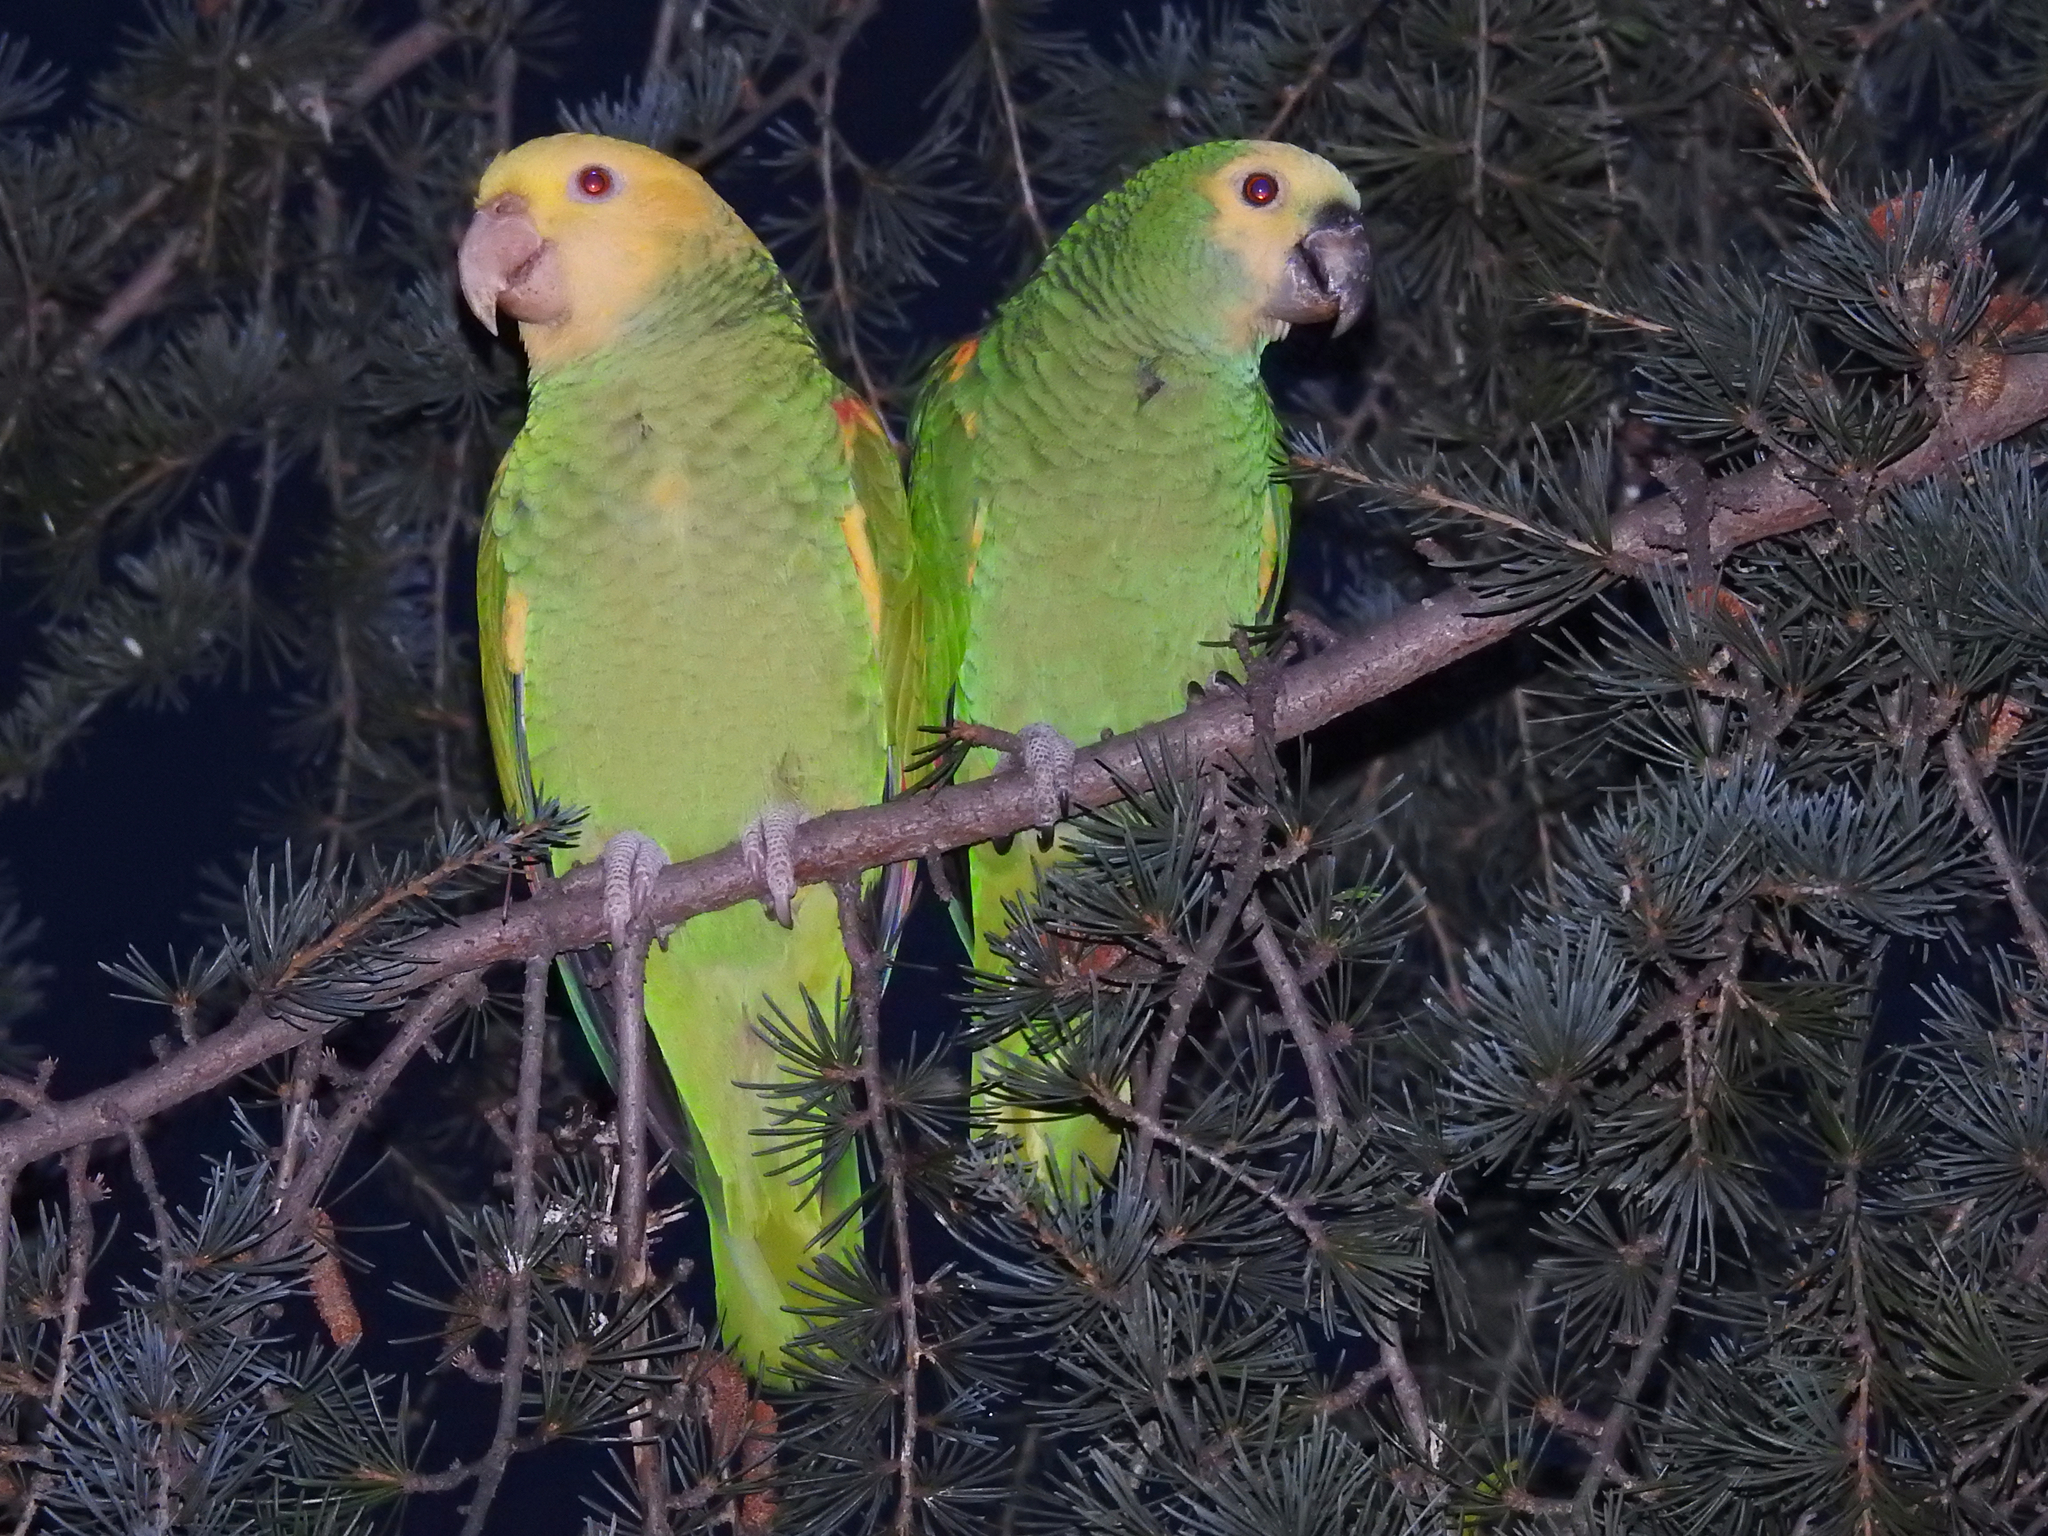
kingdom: Animalia
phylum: Chordata
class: Aves
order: Psittaciformes
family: Psittacidae
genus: Amazona
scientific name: Amazona oratrix
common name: Yellow-headed amazon
